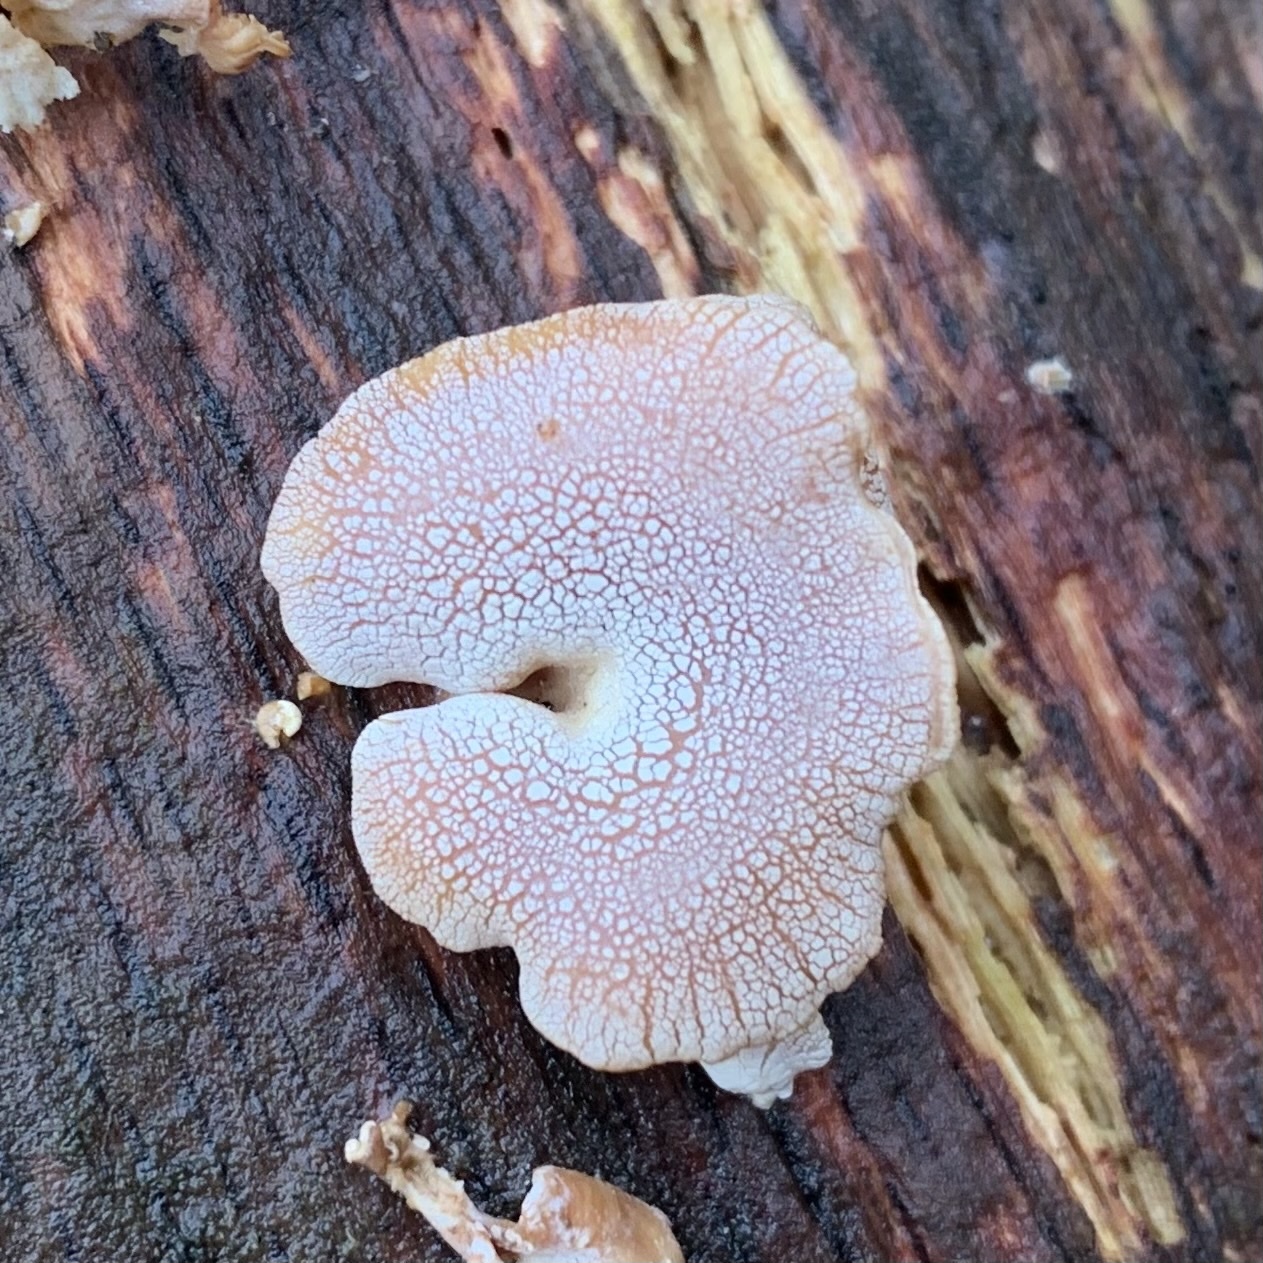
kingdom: Fungi
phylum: Basidiomycota
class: Agaricomycetes
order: Agaricales
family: Mycenaceae
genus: Panellus
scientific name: Panellus stipticus
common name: Bitter oysterling
